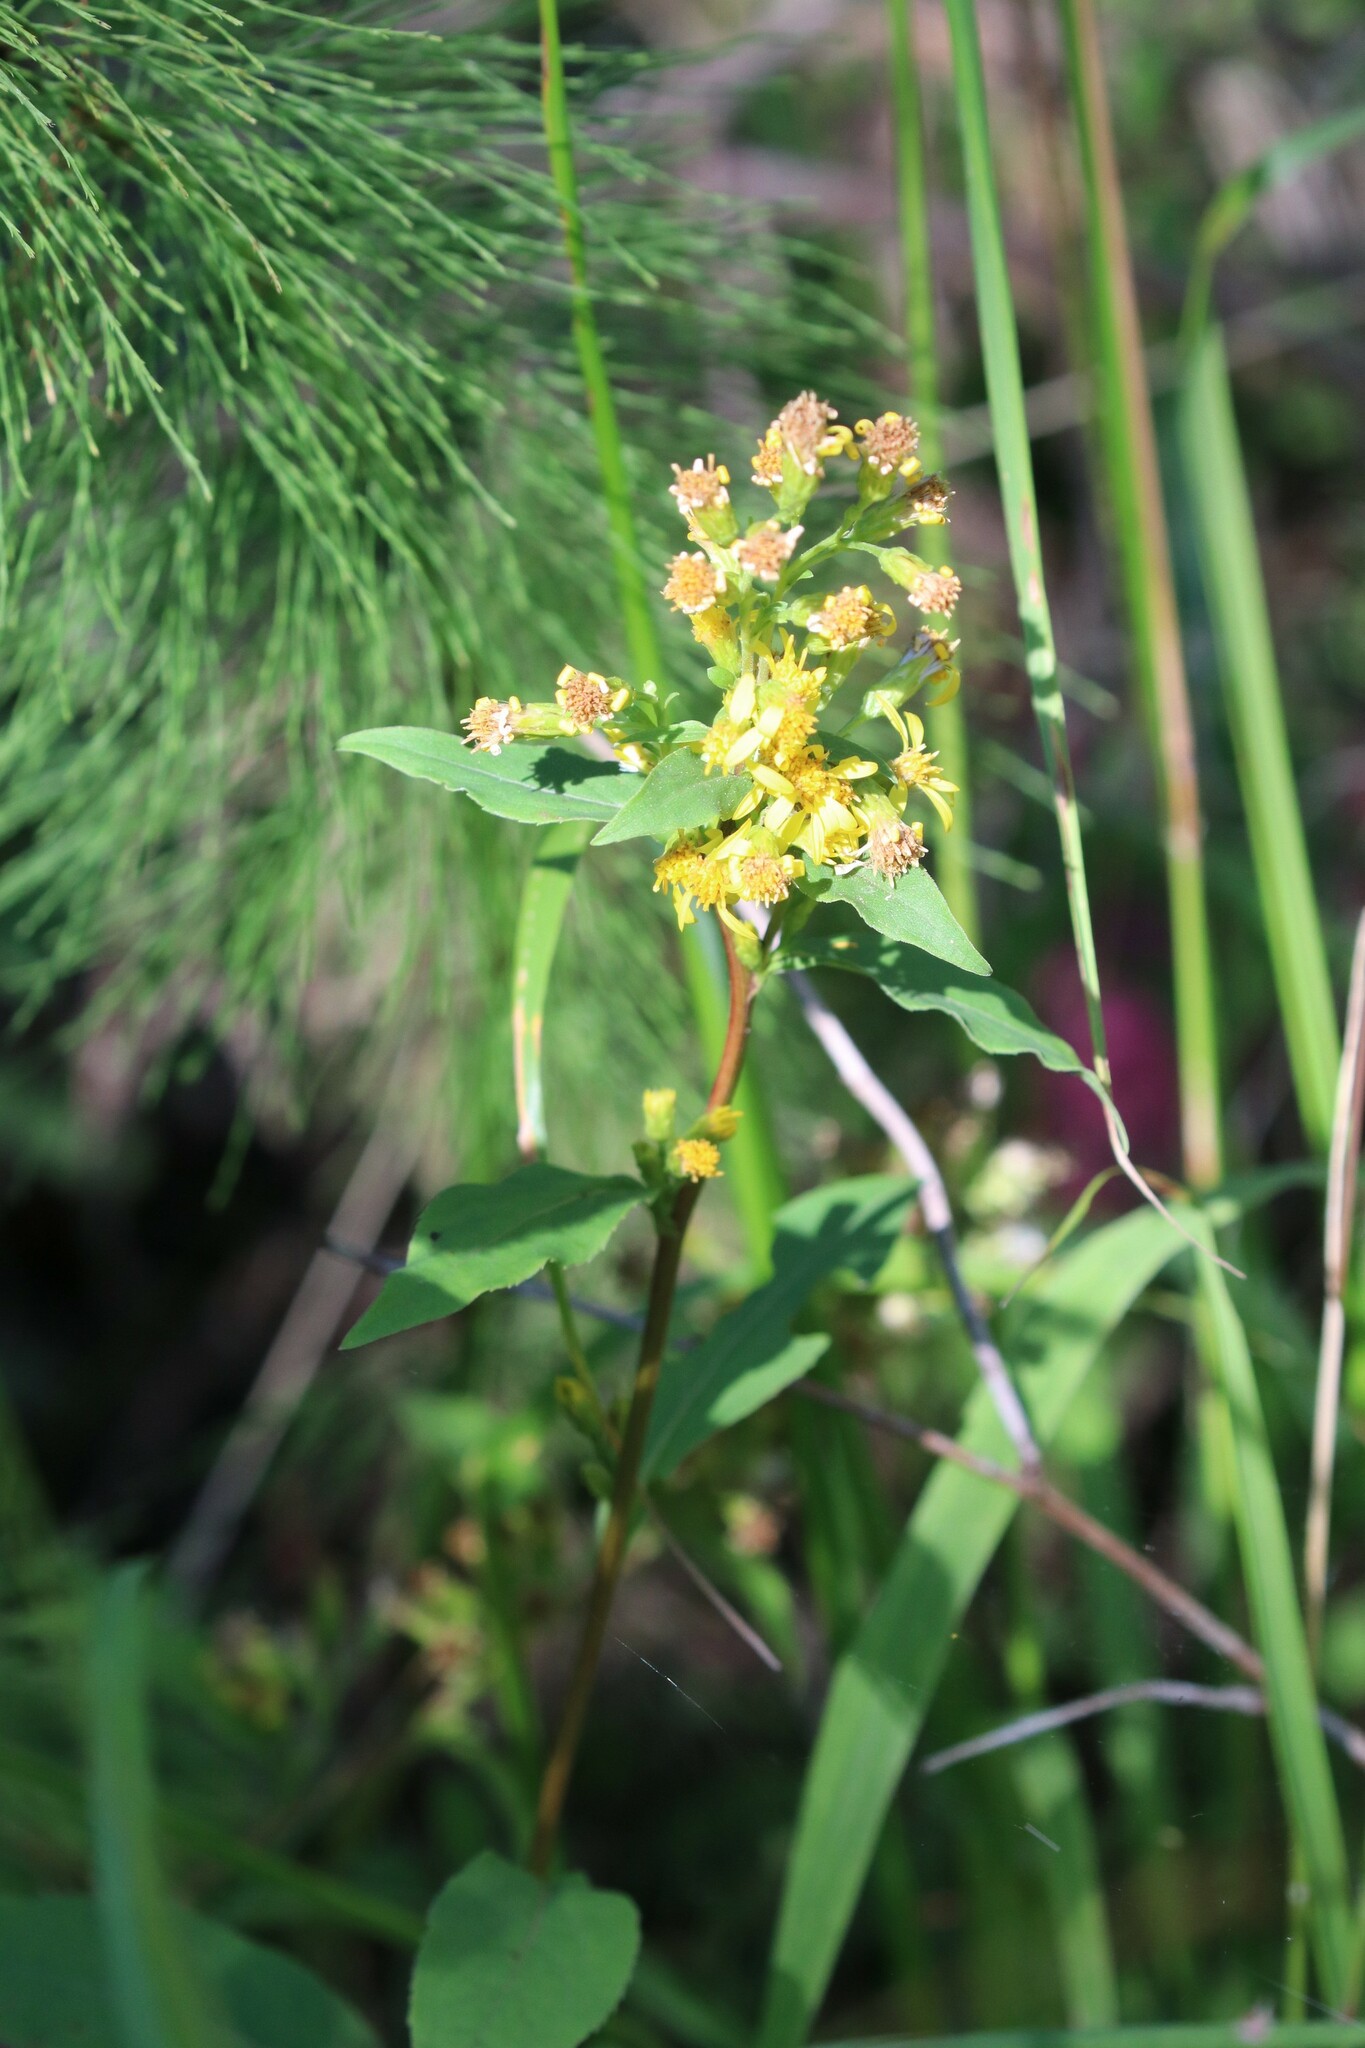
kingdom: Plantae
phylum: Tracheophyta
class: Magnoliopsida
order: Asterales
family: Asteraceae
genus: Solidago
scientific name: Solidago virgaurea
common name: Goldenrod
